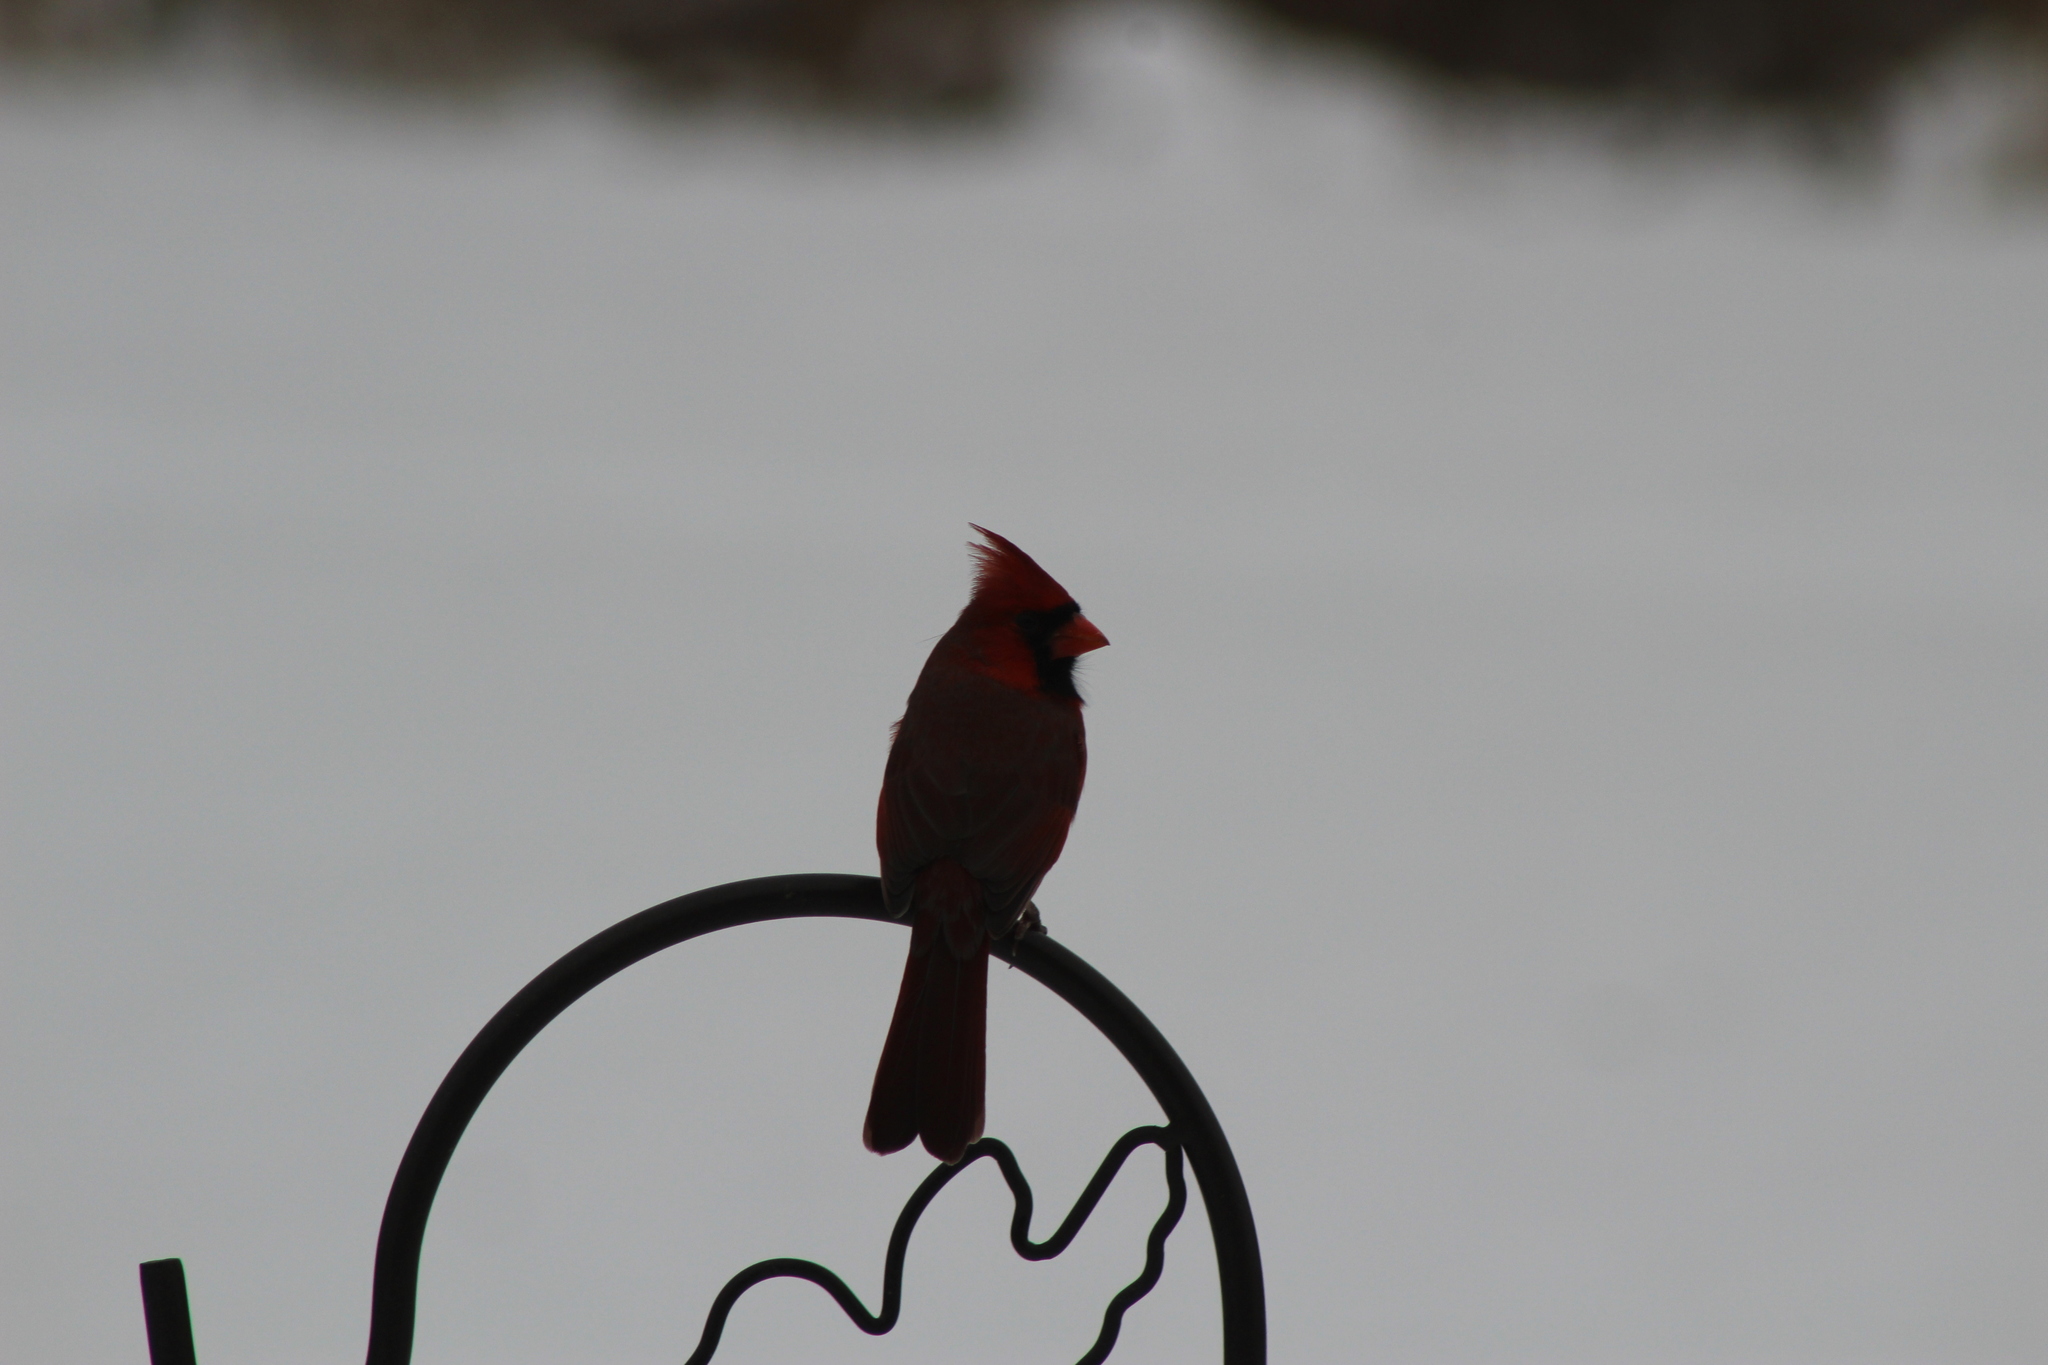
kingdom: Animalia
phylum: Chordata
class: Aves
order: Passeriformes
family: Cardinalidae
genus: Cardinalis
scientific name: Cardinalis cardinalis
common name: Northern cardinal
